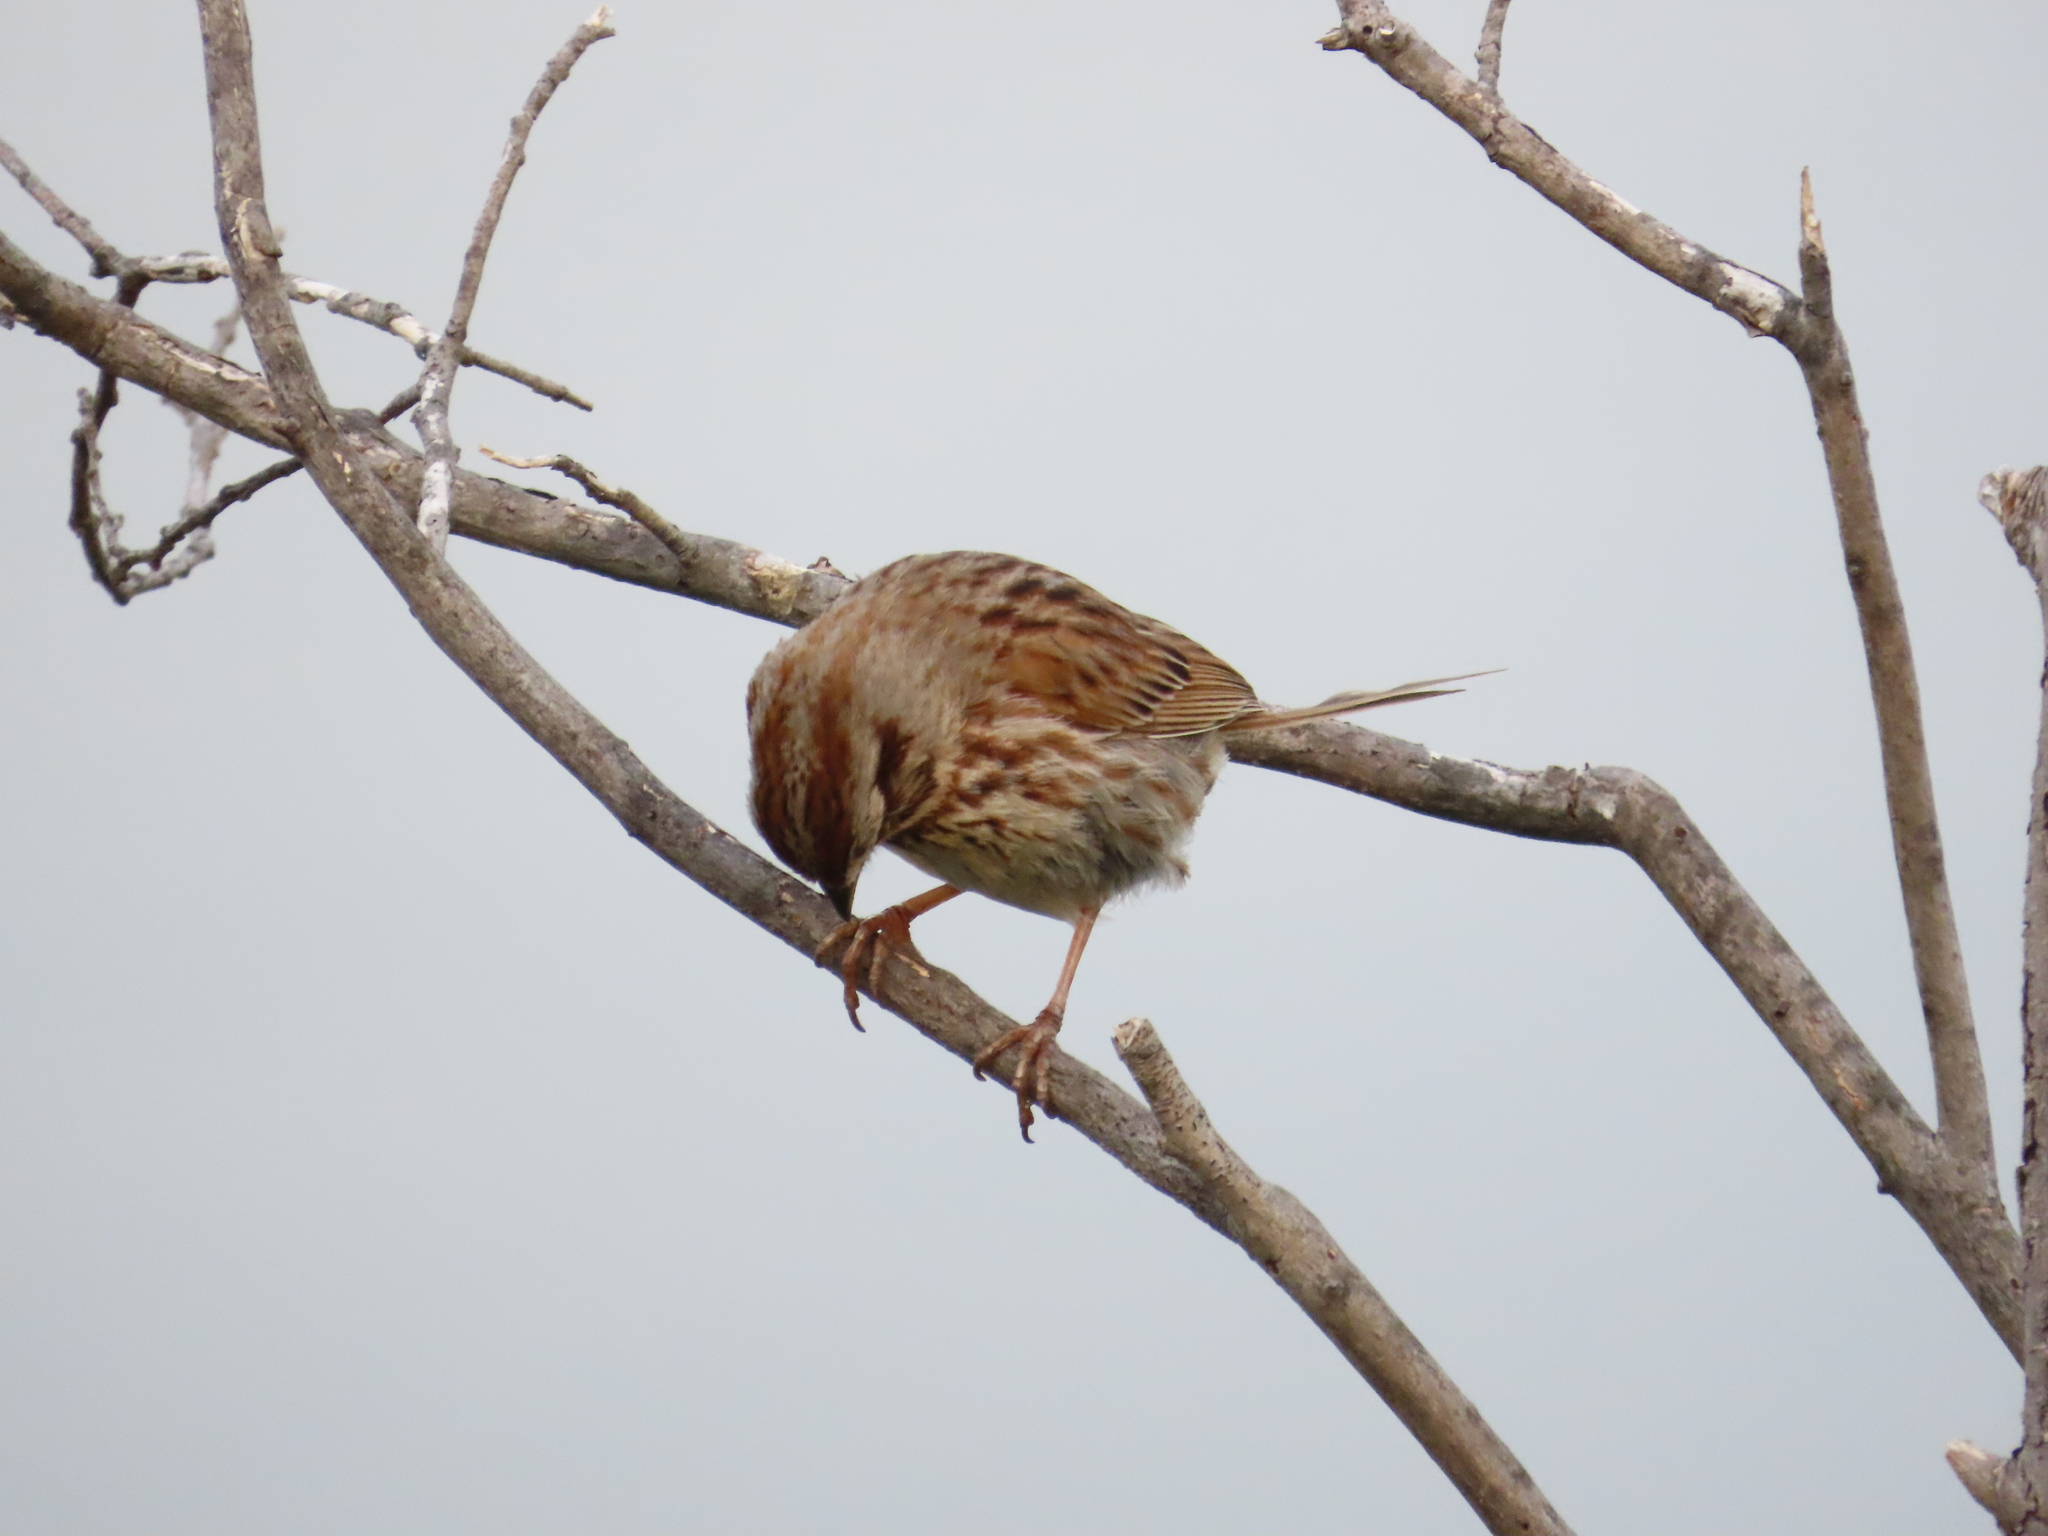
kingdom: Animalia
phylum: Chordata
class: Aves
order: Passeriformes
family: Passerellidae
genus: Melospiza
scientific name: Melospiza melodia
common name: Song sparrow
